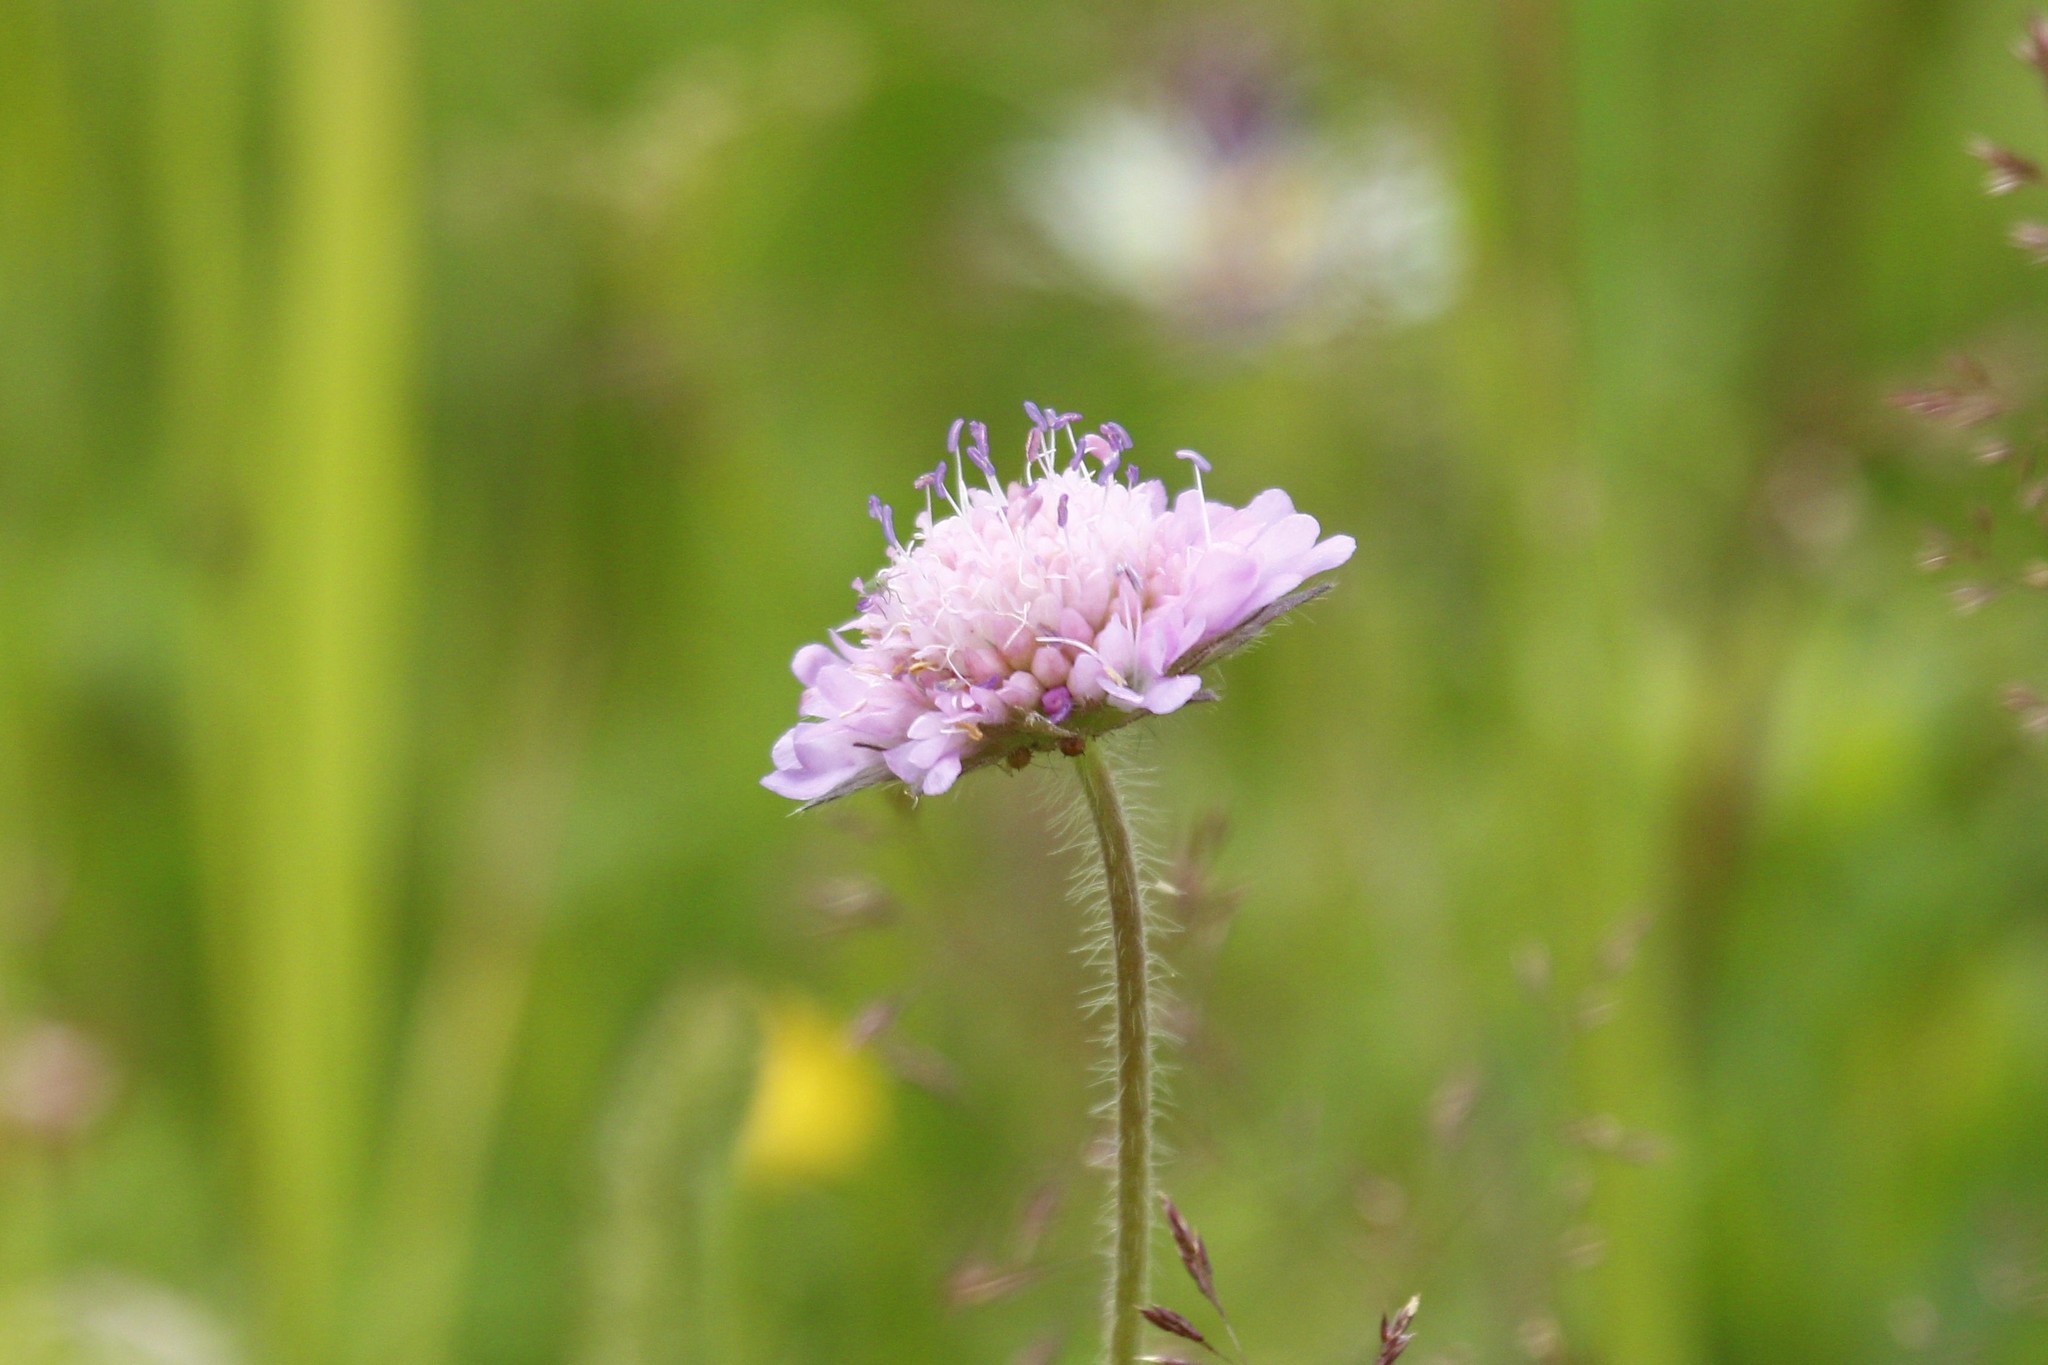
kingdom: Plantae
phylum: Tracheophyta
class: Magnoliopsida
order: Dipsacales
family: Caprifoliaceae
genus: Knautia
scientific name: Knautia arvensis
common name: Field scabiosa
